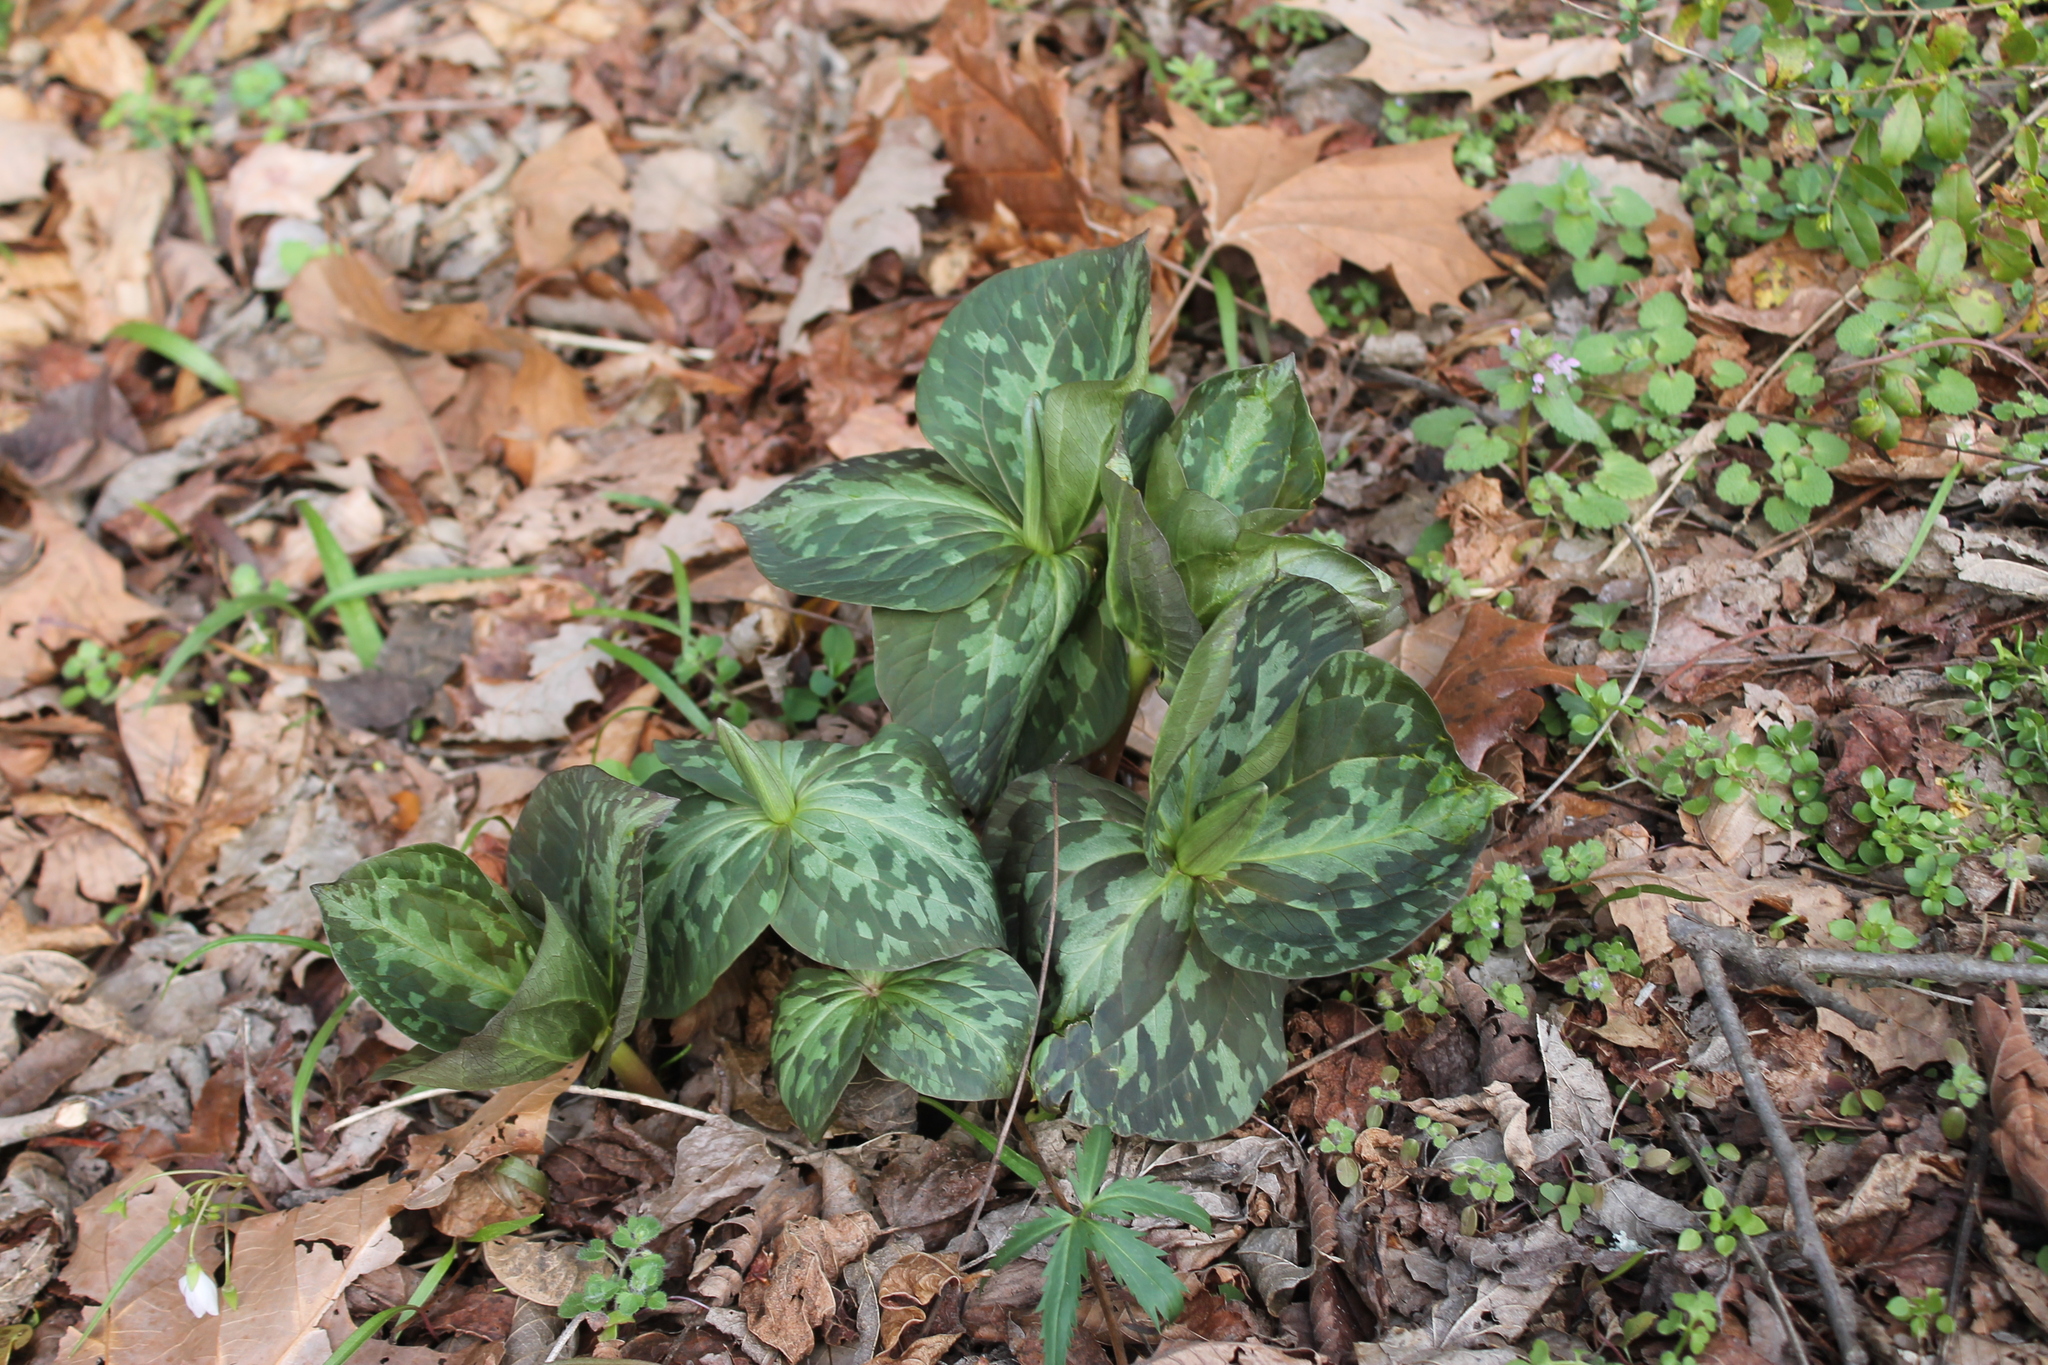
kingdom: Plantae
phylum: Tracheophyta
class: Liliopsida
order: Liliales
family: Melanthiaceae
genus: Trillium
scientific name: Trillium cuneatum
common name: Cuneate trillium
